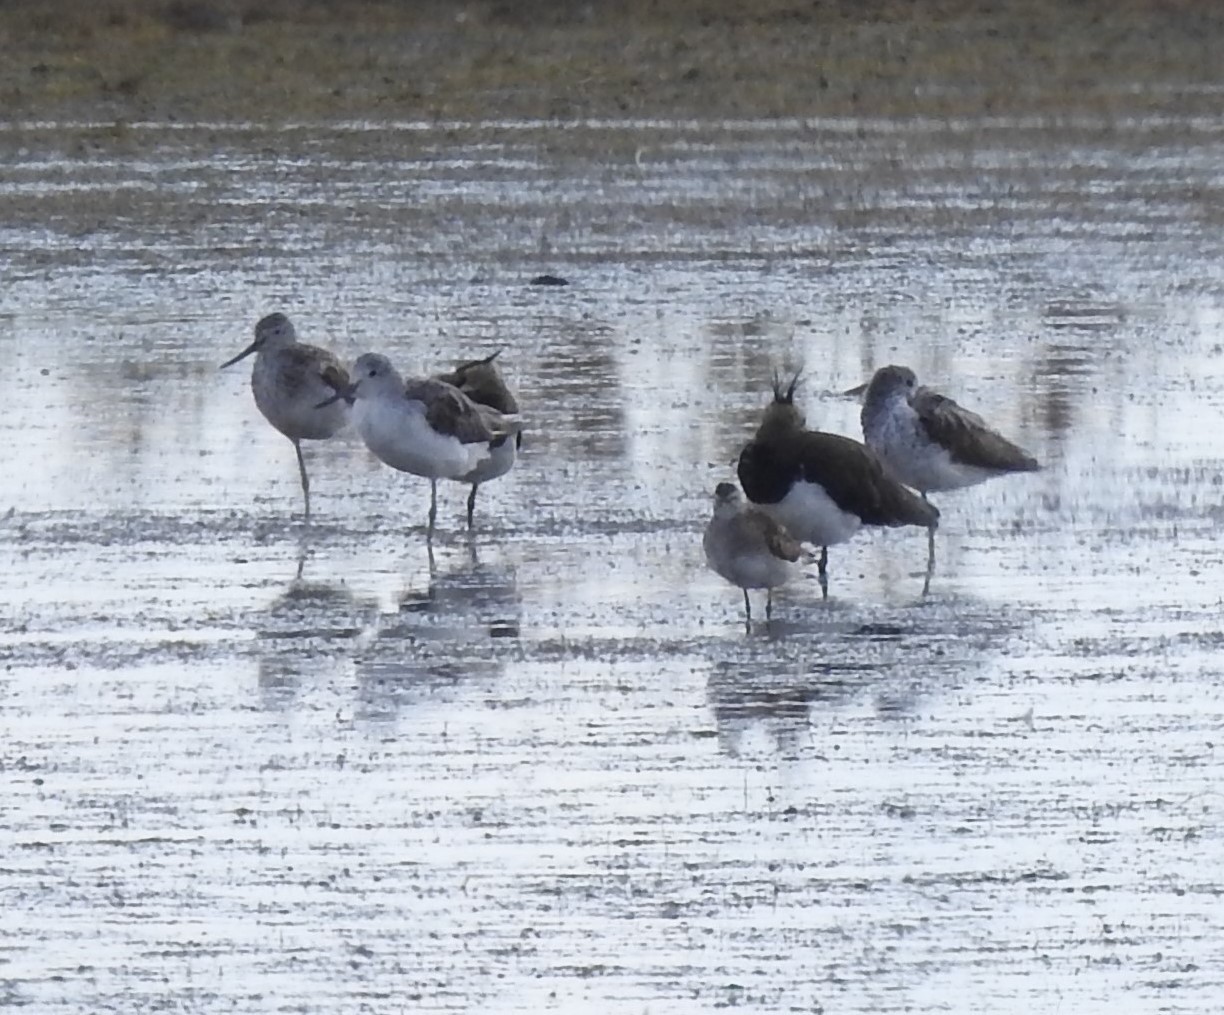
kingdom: Animalia
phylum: Chordata
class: Aves
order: Charadriiformes
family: Scolopacidae
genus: Tringa
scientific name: Tringa nebularia
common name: Common greenshank
